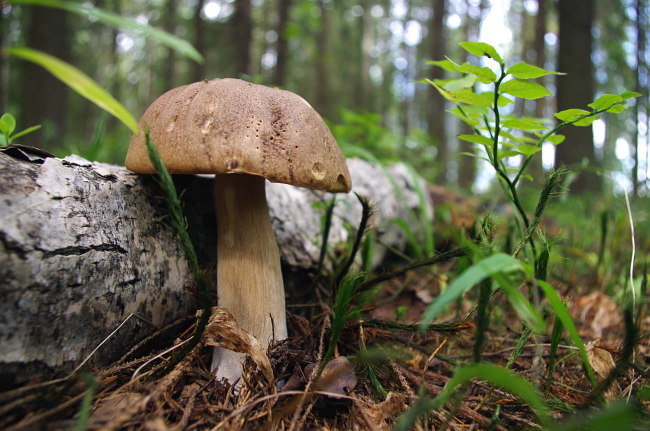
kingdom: Plantae
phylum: Tracheophyta
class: Magnoliopsida
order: Ericales
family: Ericaceae
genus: Vaccinium
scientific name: Vaccinium myrtillus
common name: Bilberry
